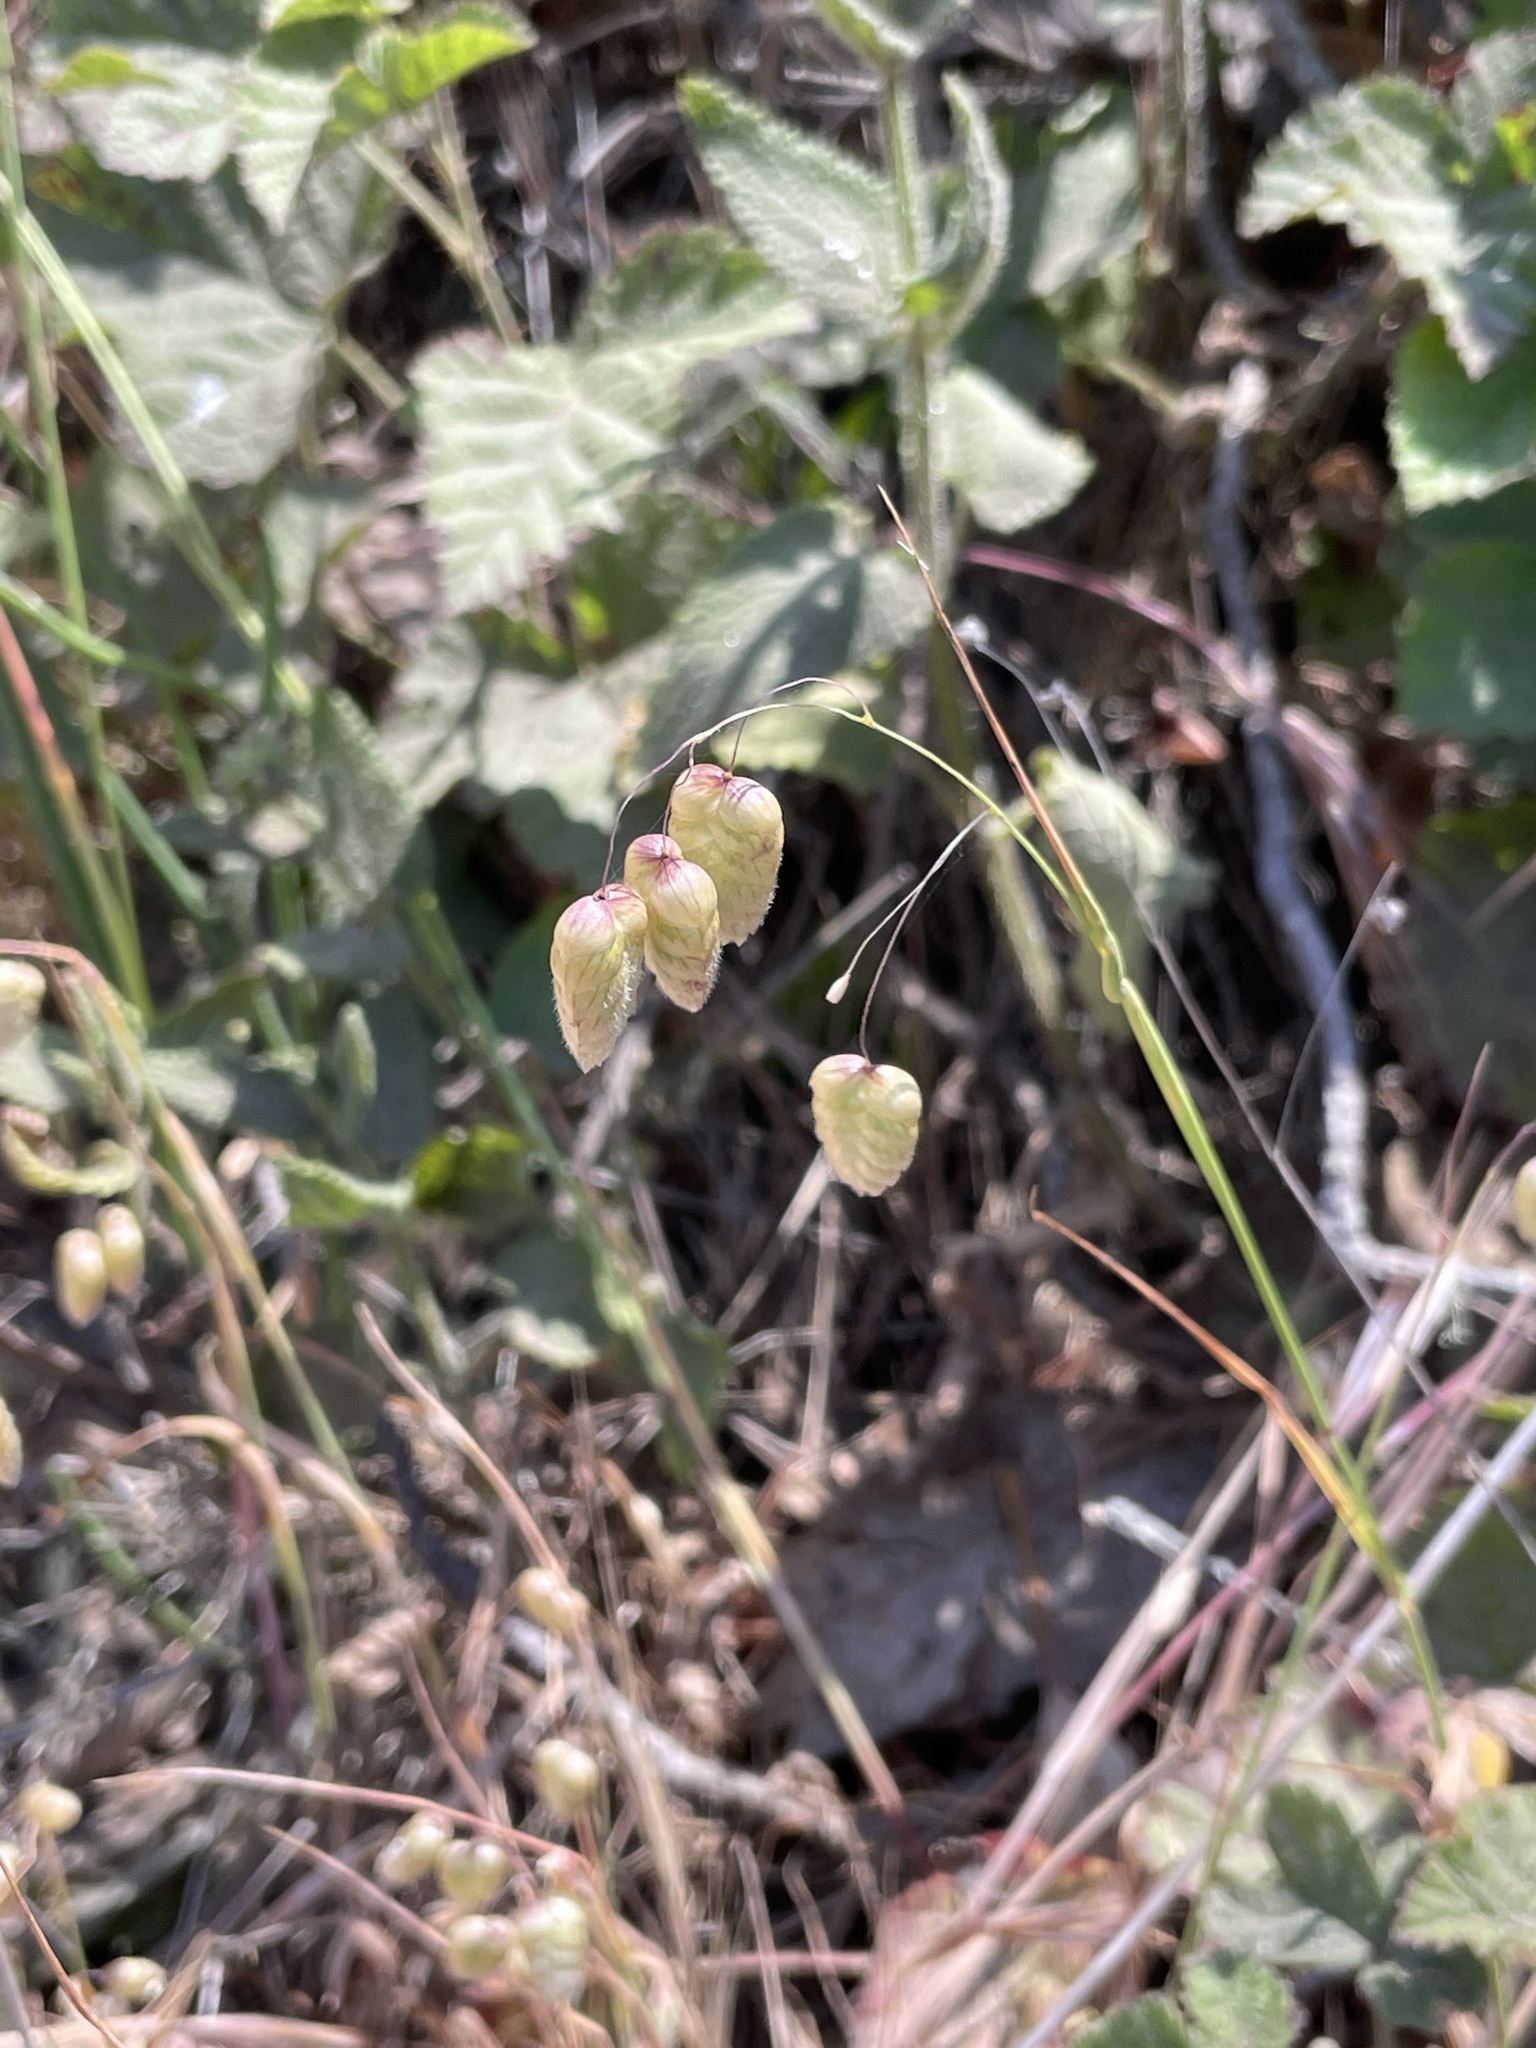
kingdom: Plantae
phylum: Tracheophyta
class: Liliopsida
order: Poales
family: Poaceae
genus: Briza
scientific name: Briza maxima
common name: Big quakinggrass
